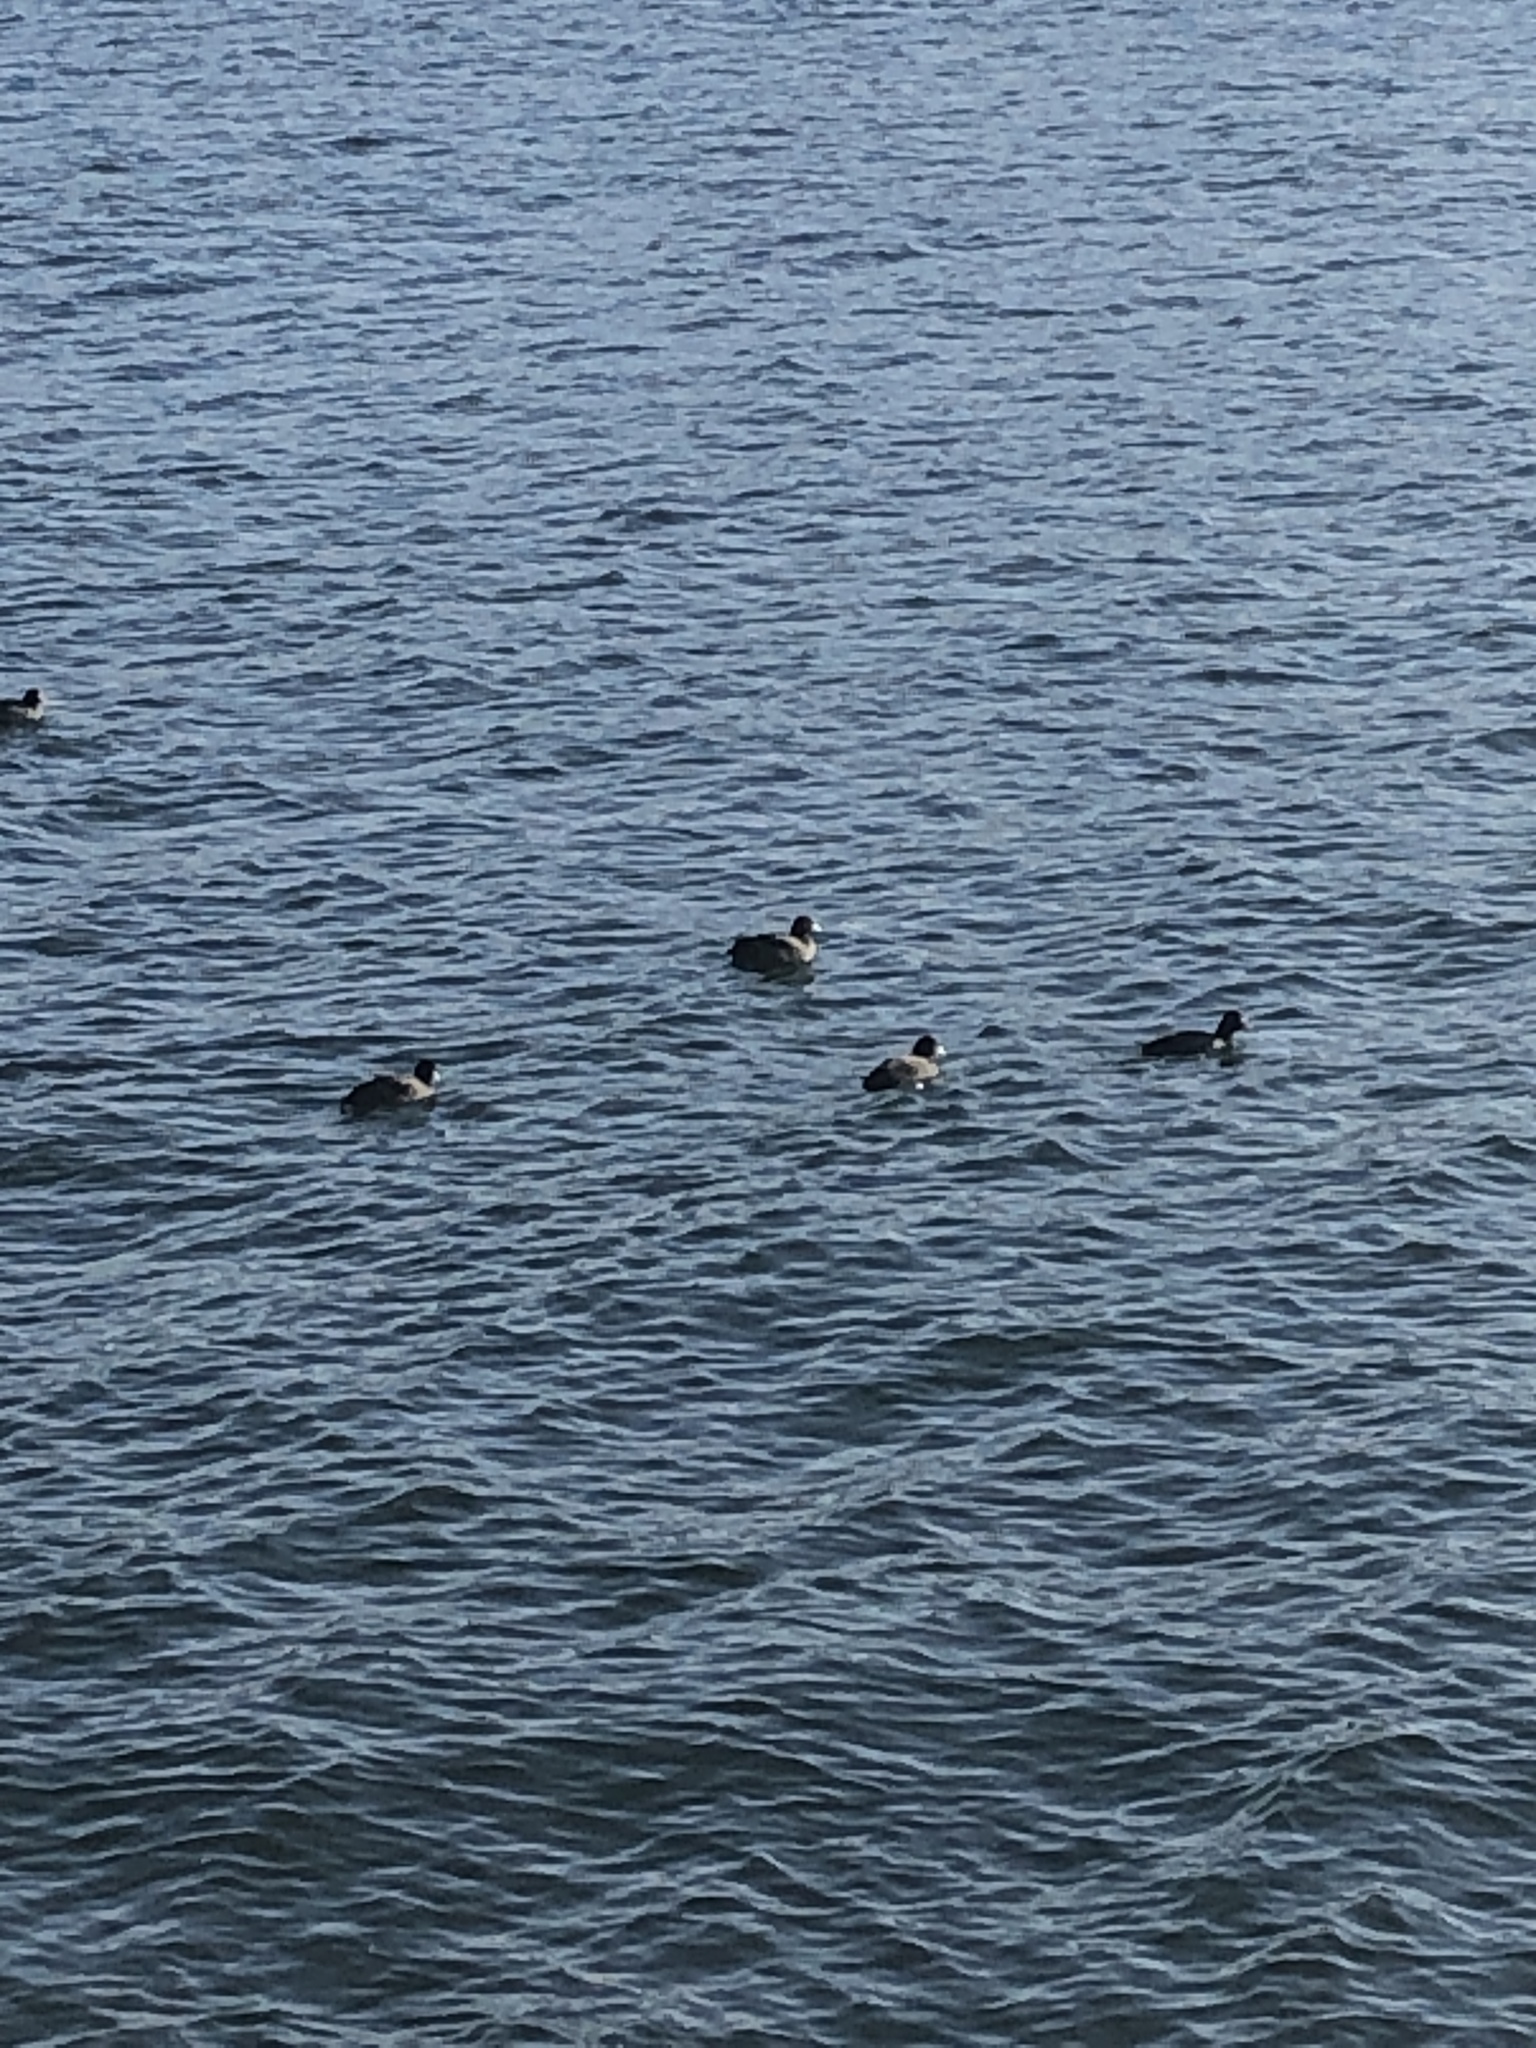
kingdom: Animalia
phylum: Chordata
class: Aves
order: Gruiformes
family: Rallidae
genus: Fulica
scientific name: Fulica atra
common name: Eurasian coot
